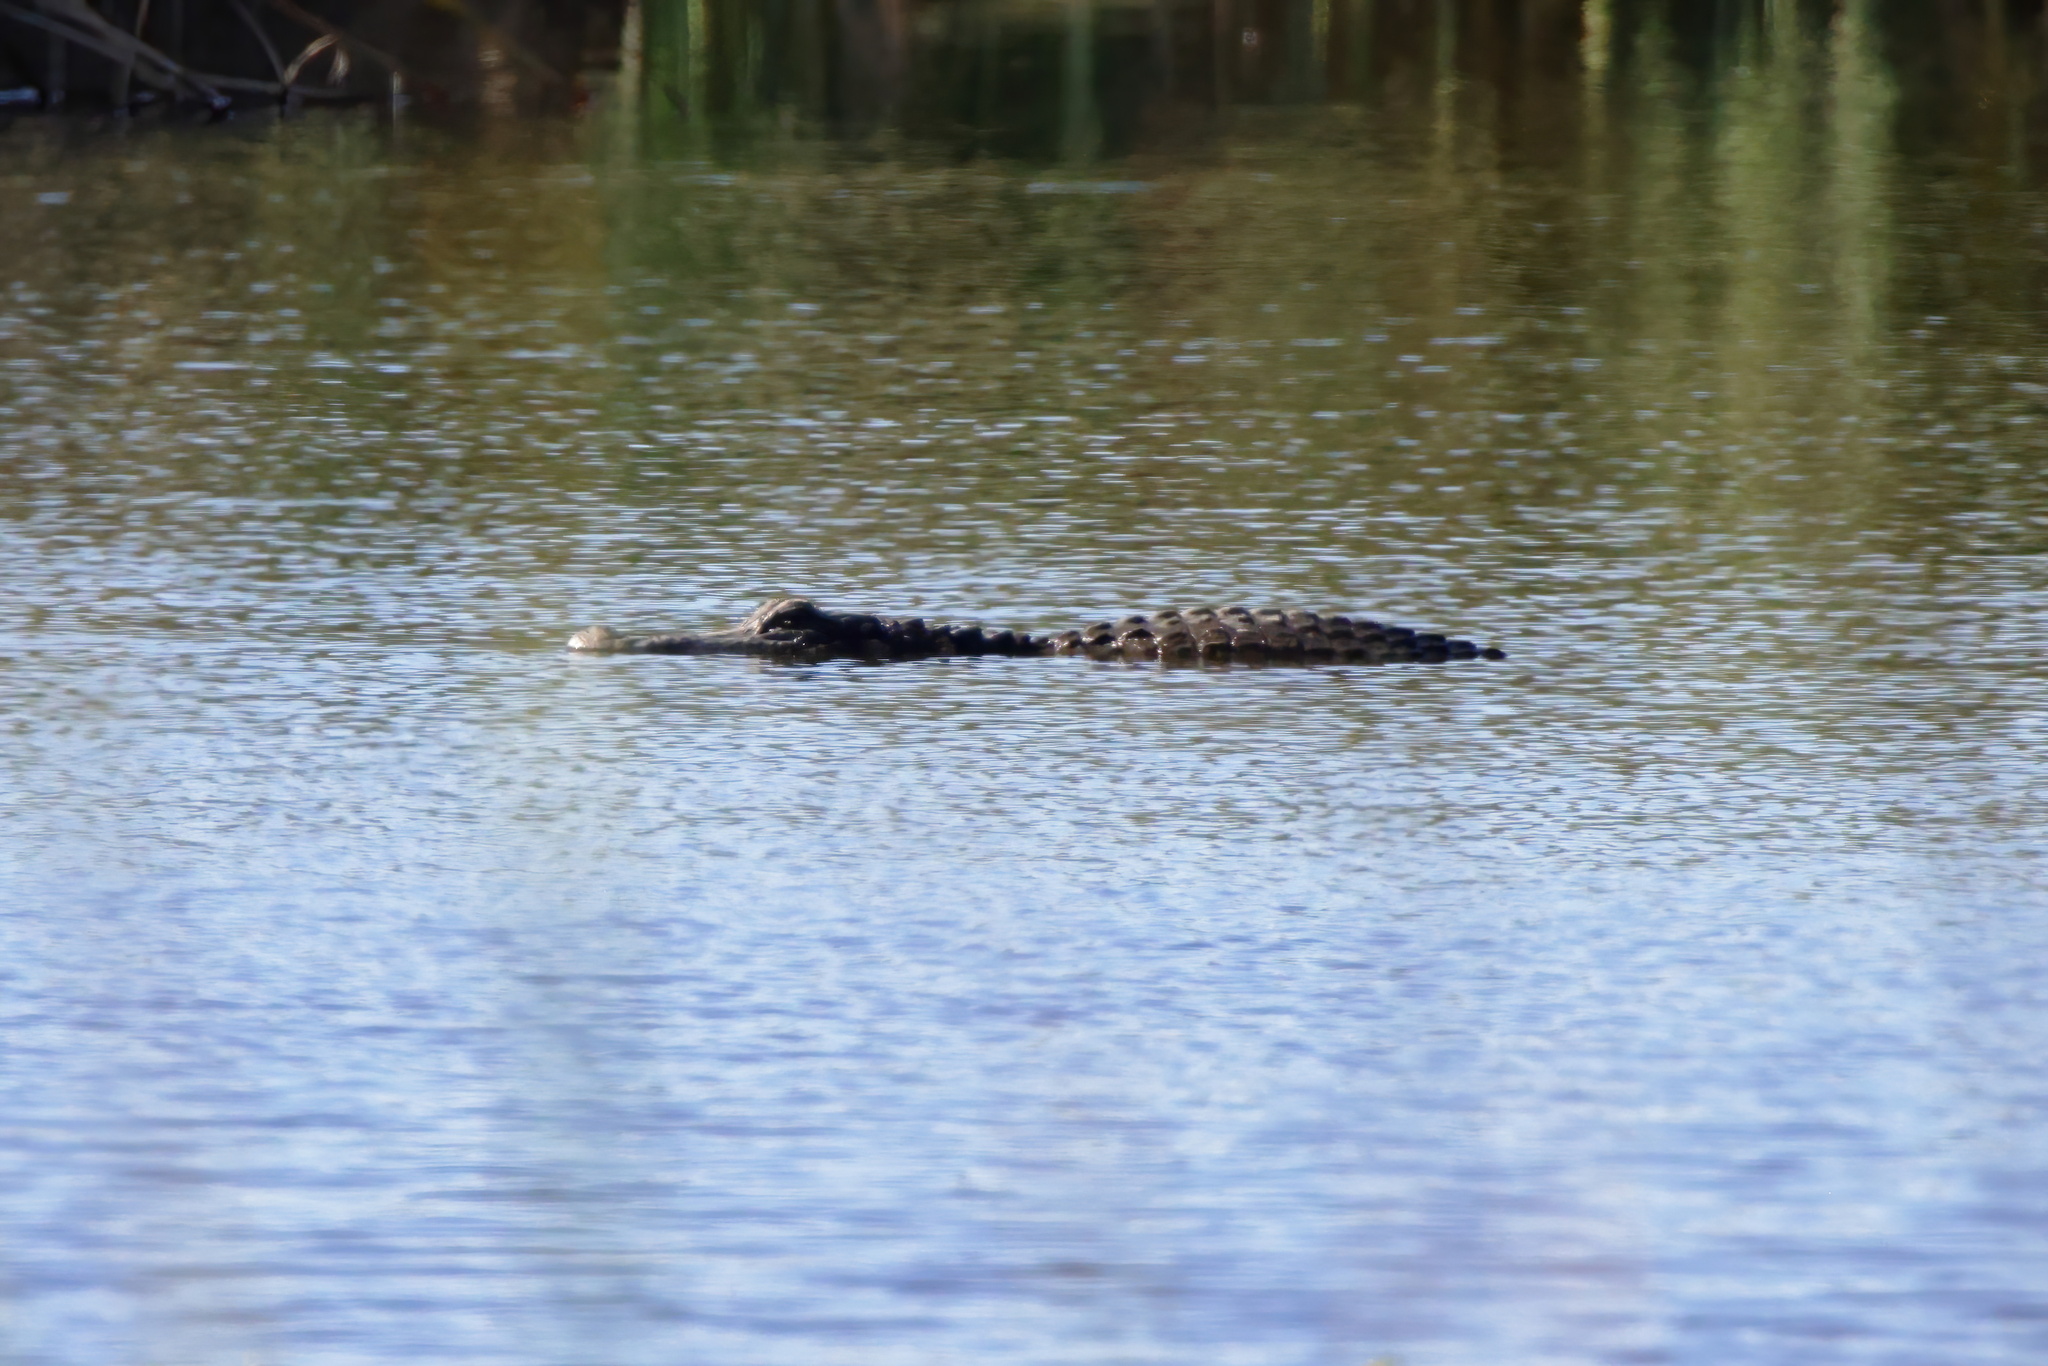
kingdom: Animalia
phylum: Chordata
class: Crocodylia
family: Alligatoridae
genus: Alligator
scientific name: Alligator mississippiensis
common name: American alligator
